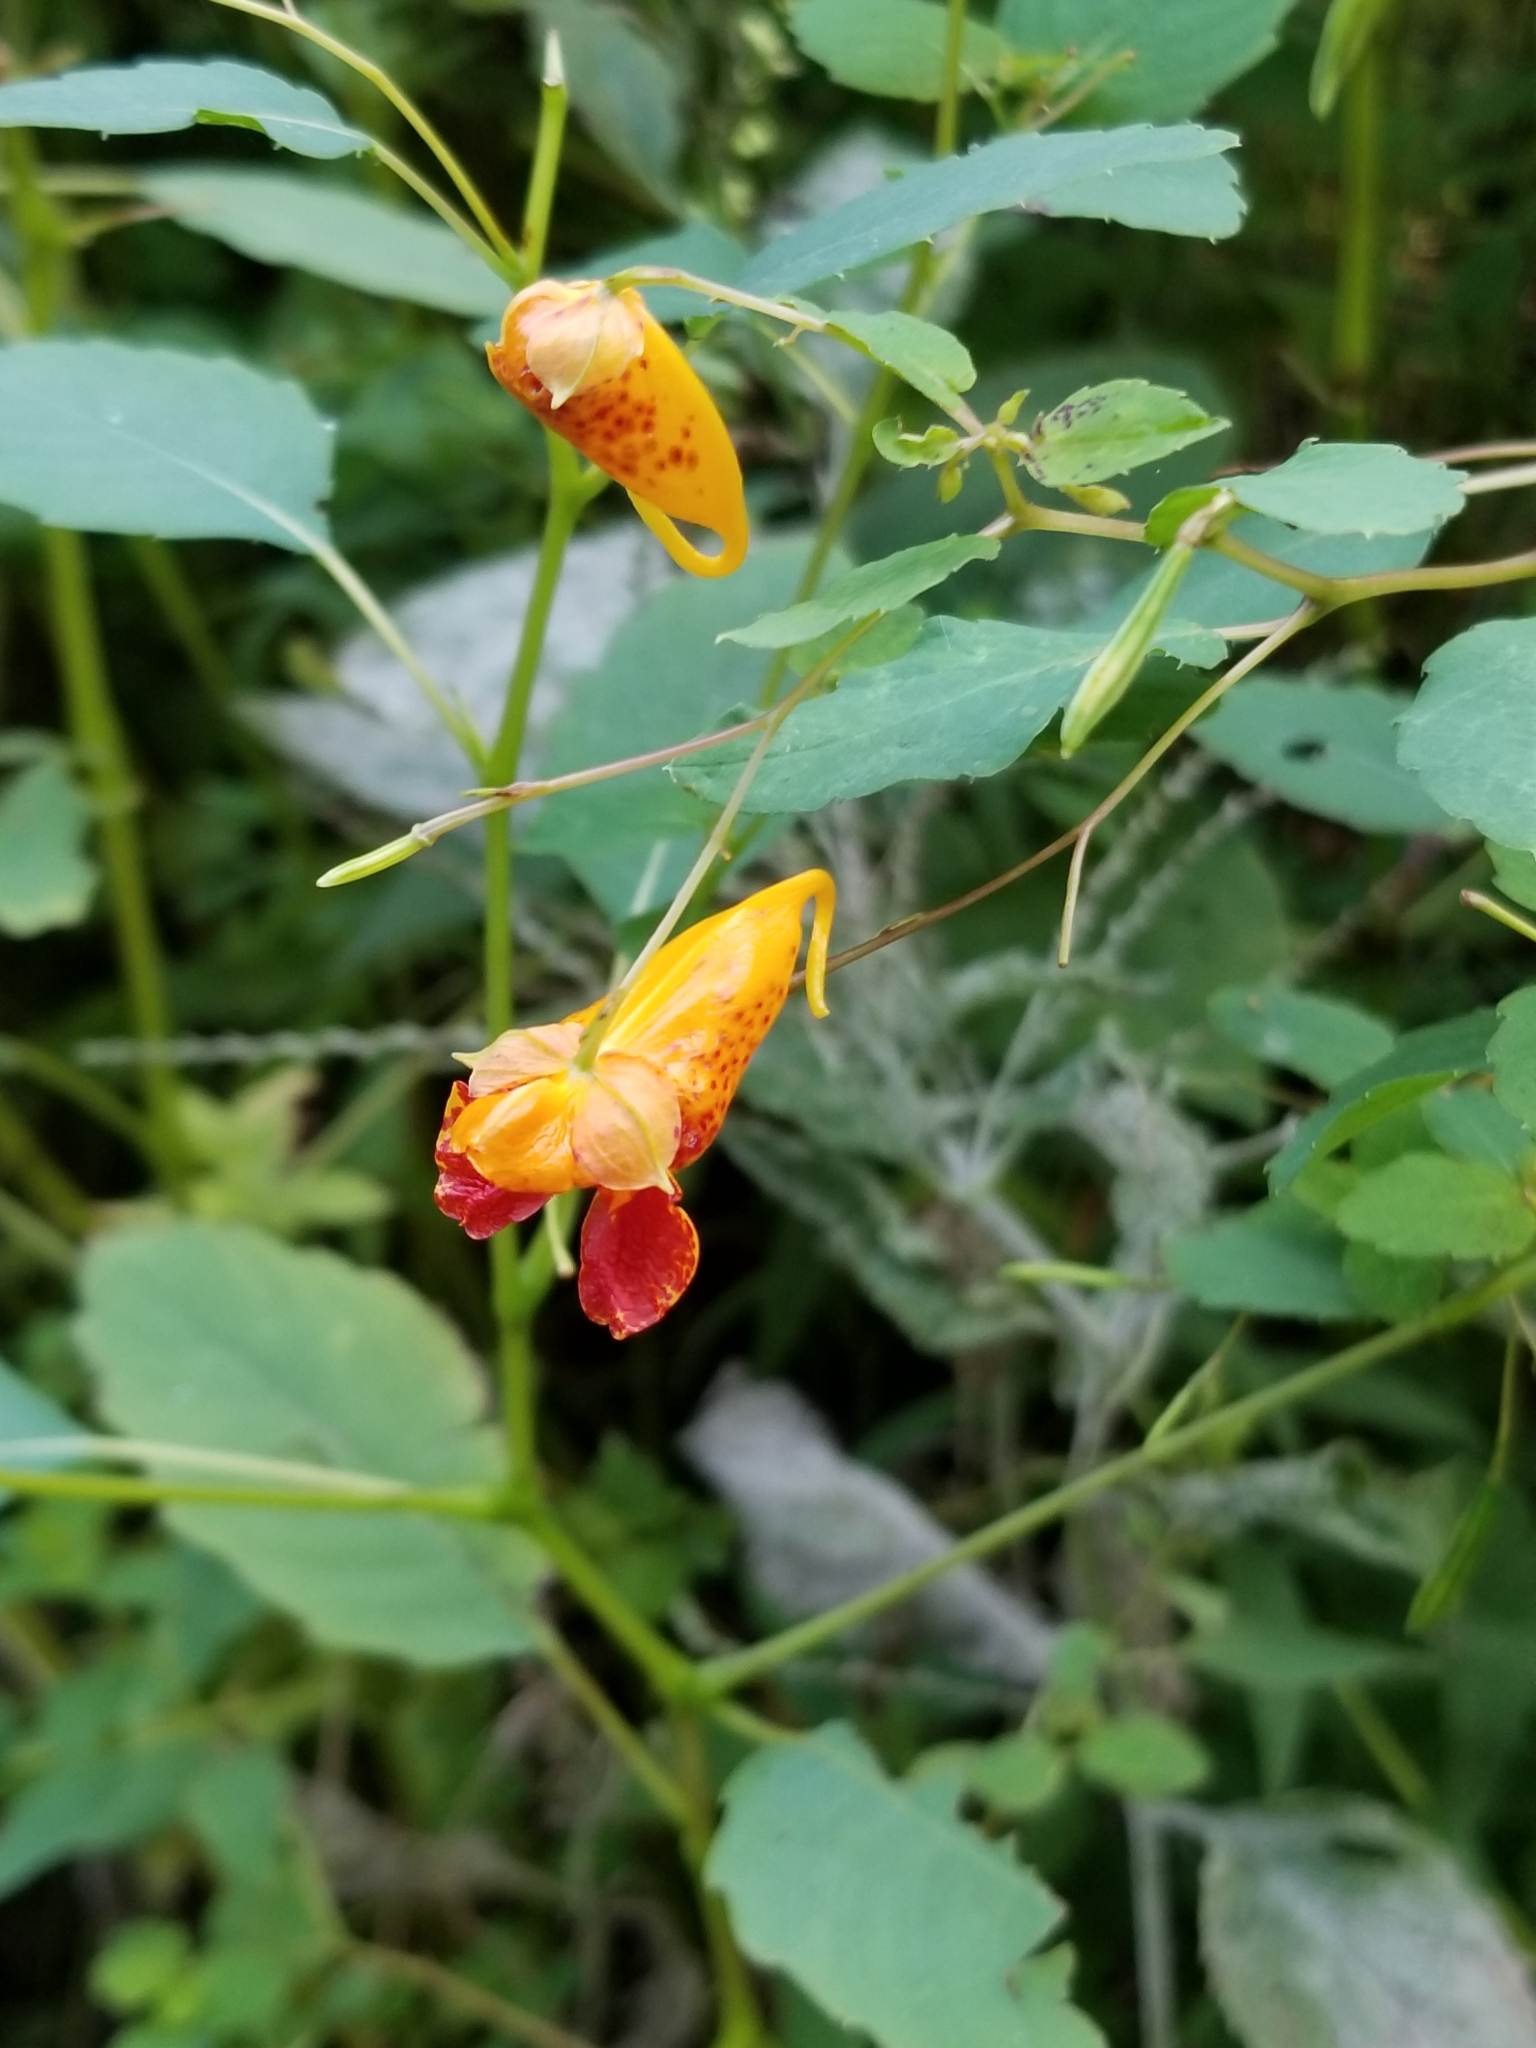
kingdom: Plantae
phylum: Tracheophyta
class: Magnoliopsida
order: Ericales
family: Balsaminaceae
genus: Impatiens
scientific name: Impatiens capensis
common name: Orange balsam
